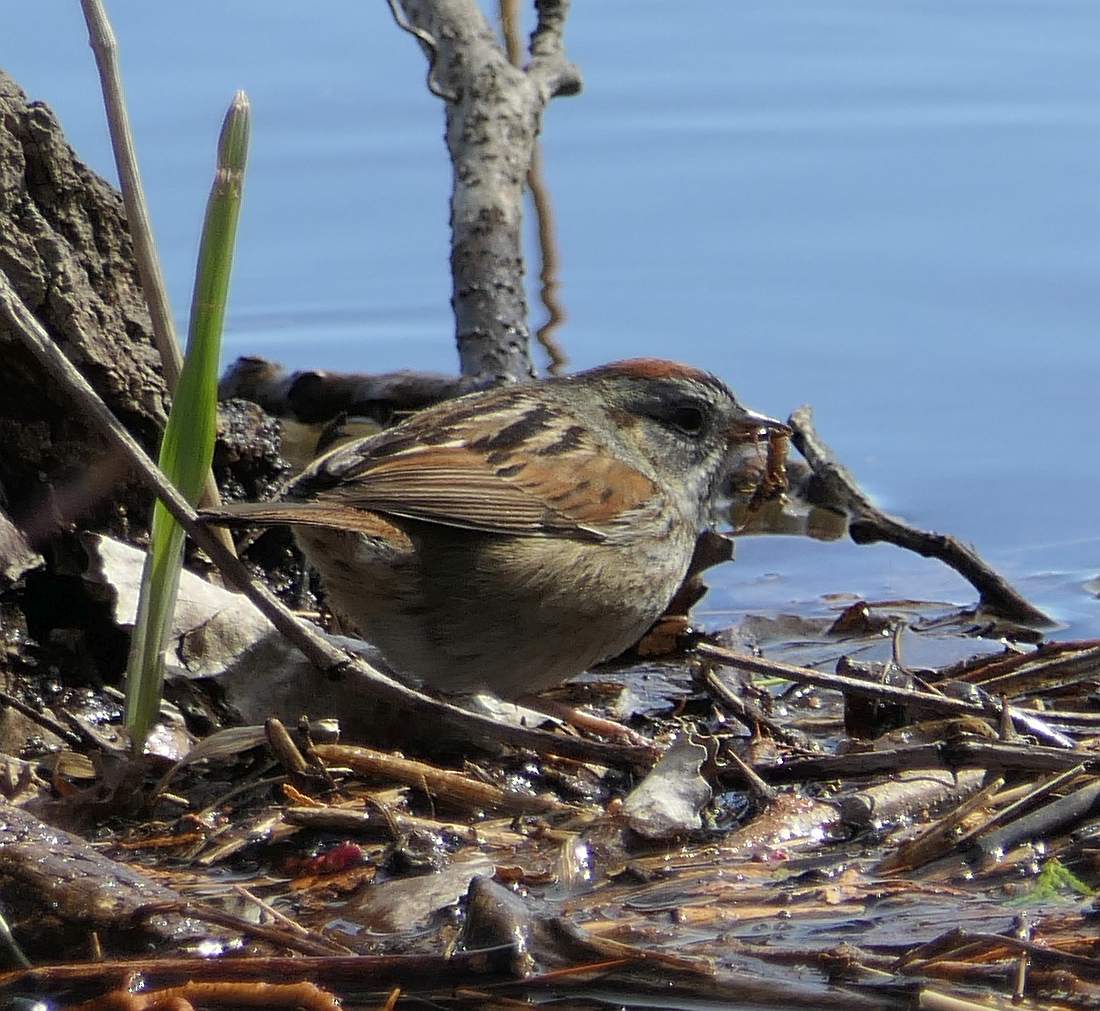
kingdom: Animalia
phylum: Chordata
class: Aves
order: Passeriformes
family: Passerellidae
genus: Melospiza
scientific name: Melospiza georgiana
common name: Swamp sparrow
